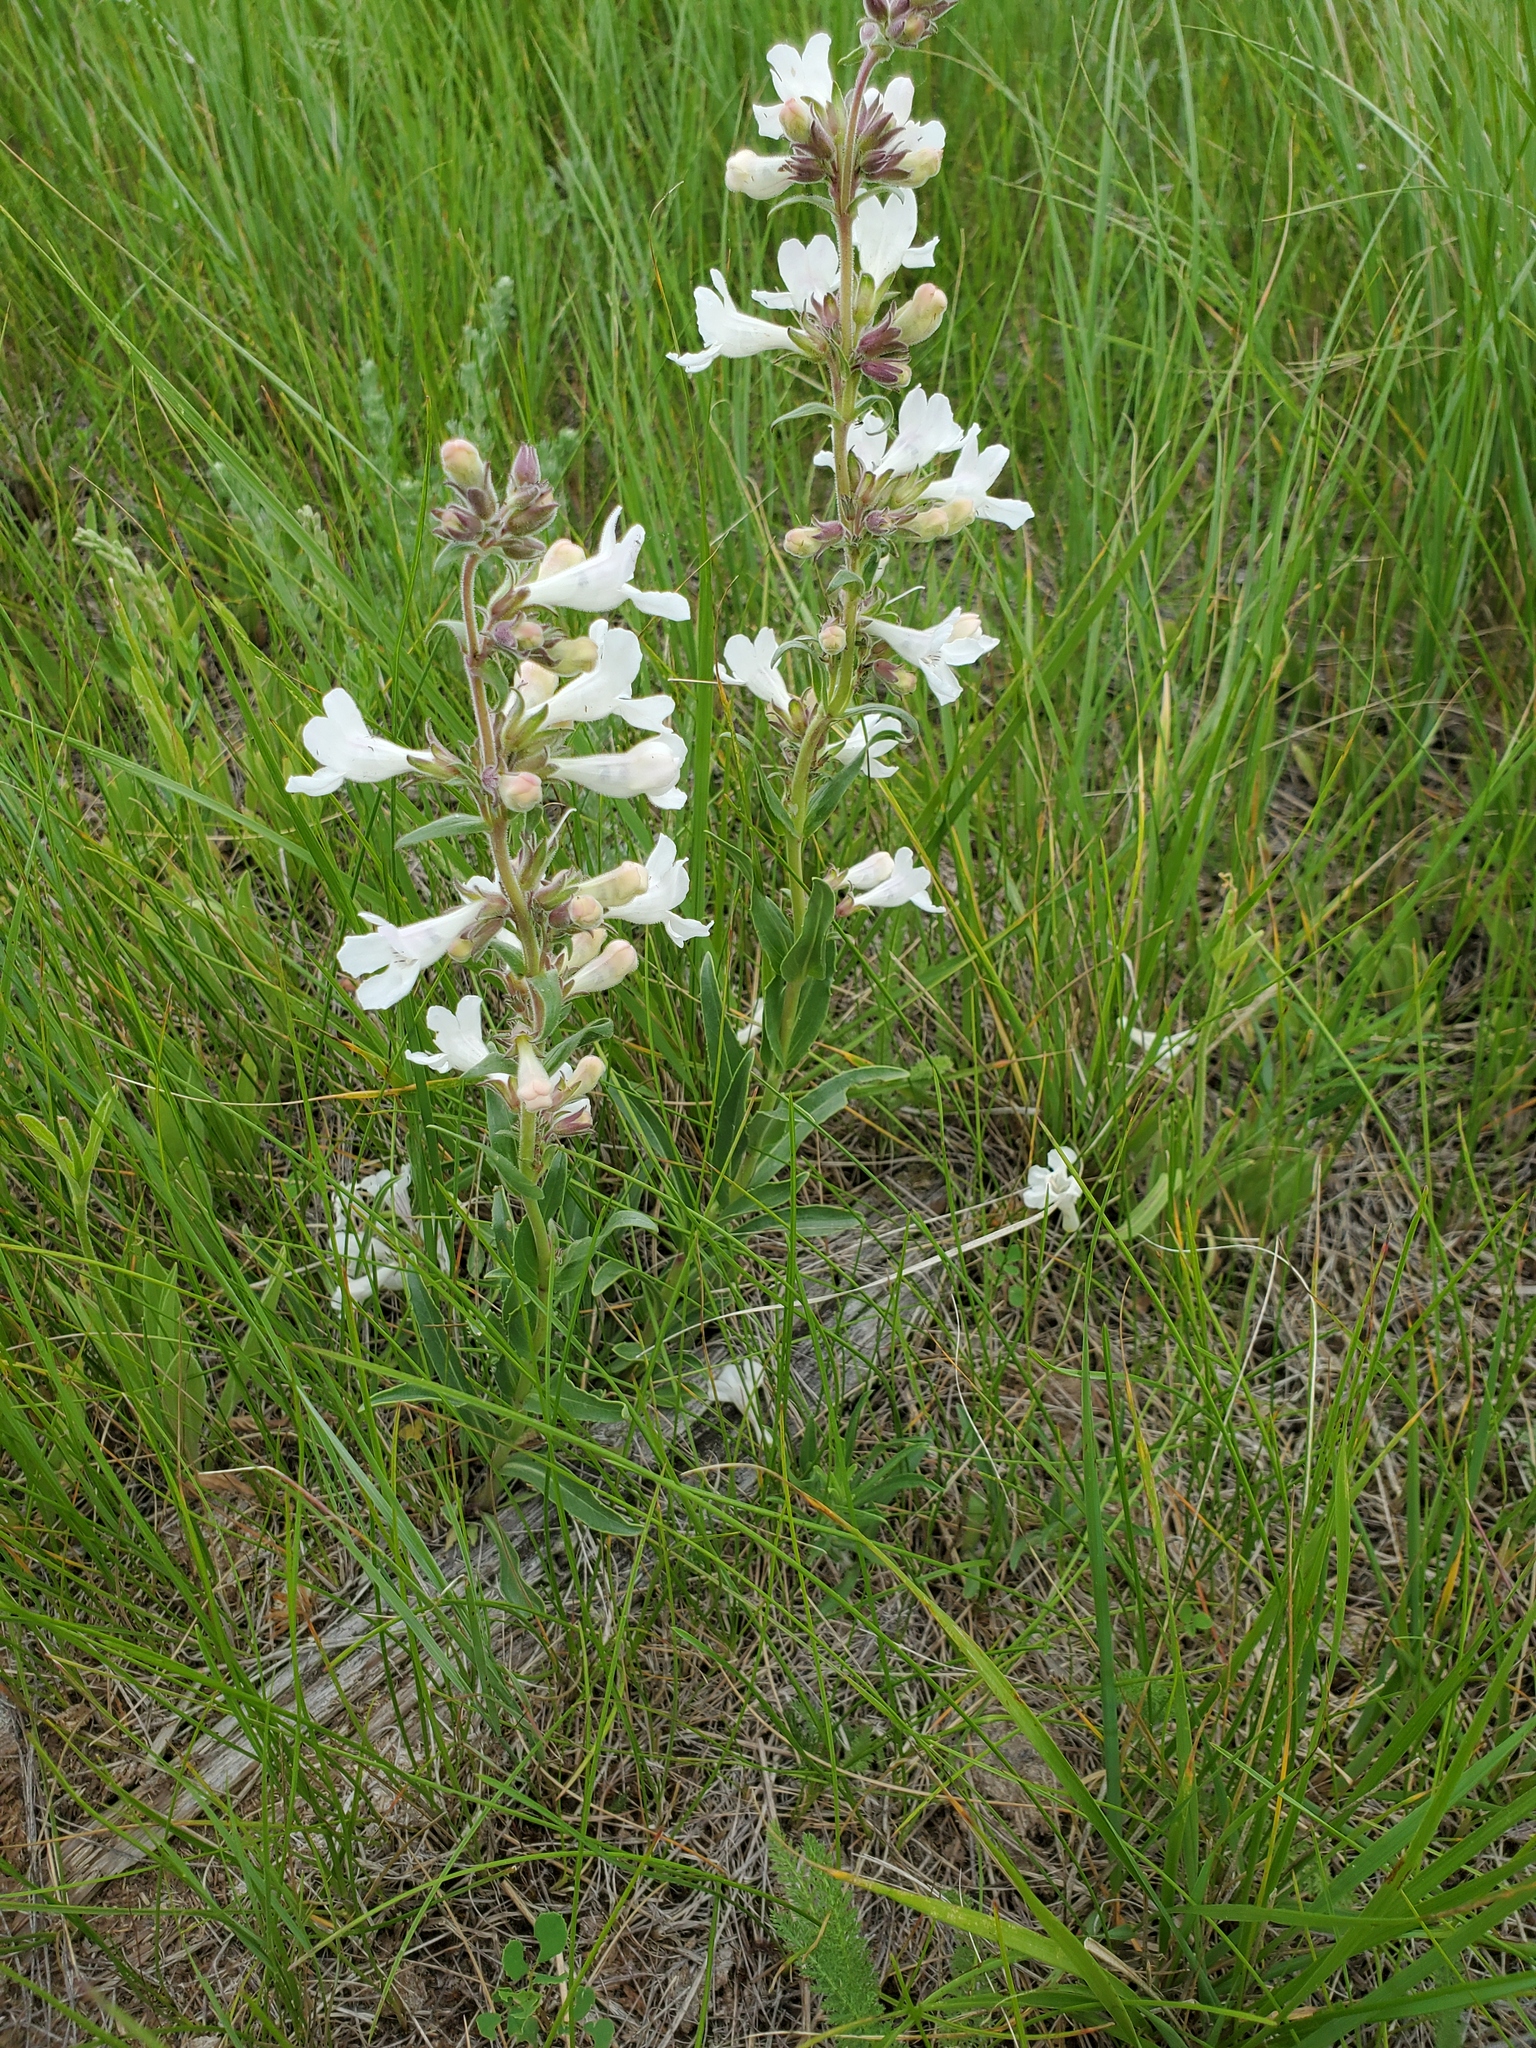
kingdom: Plantae
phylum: Tracheophyta
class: Magnoliopsida
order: Lamiales
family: Plantaginaceae
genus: Penstemon
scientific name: Penstemon albidus
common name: White beardtongue
